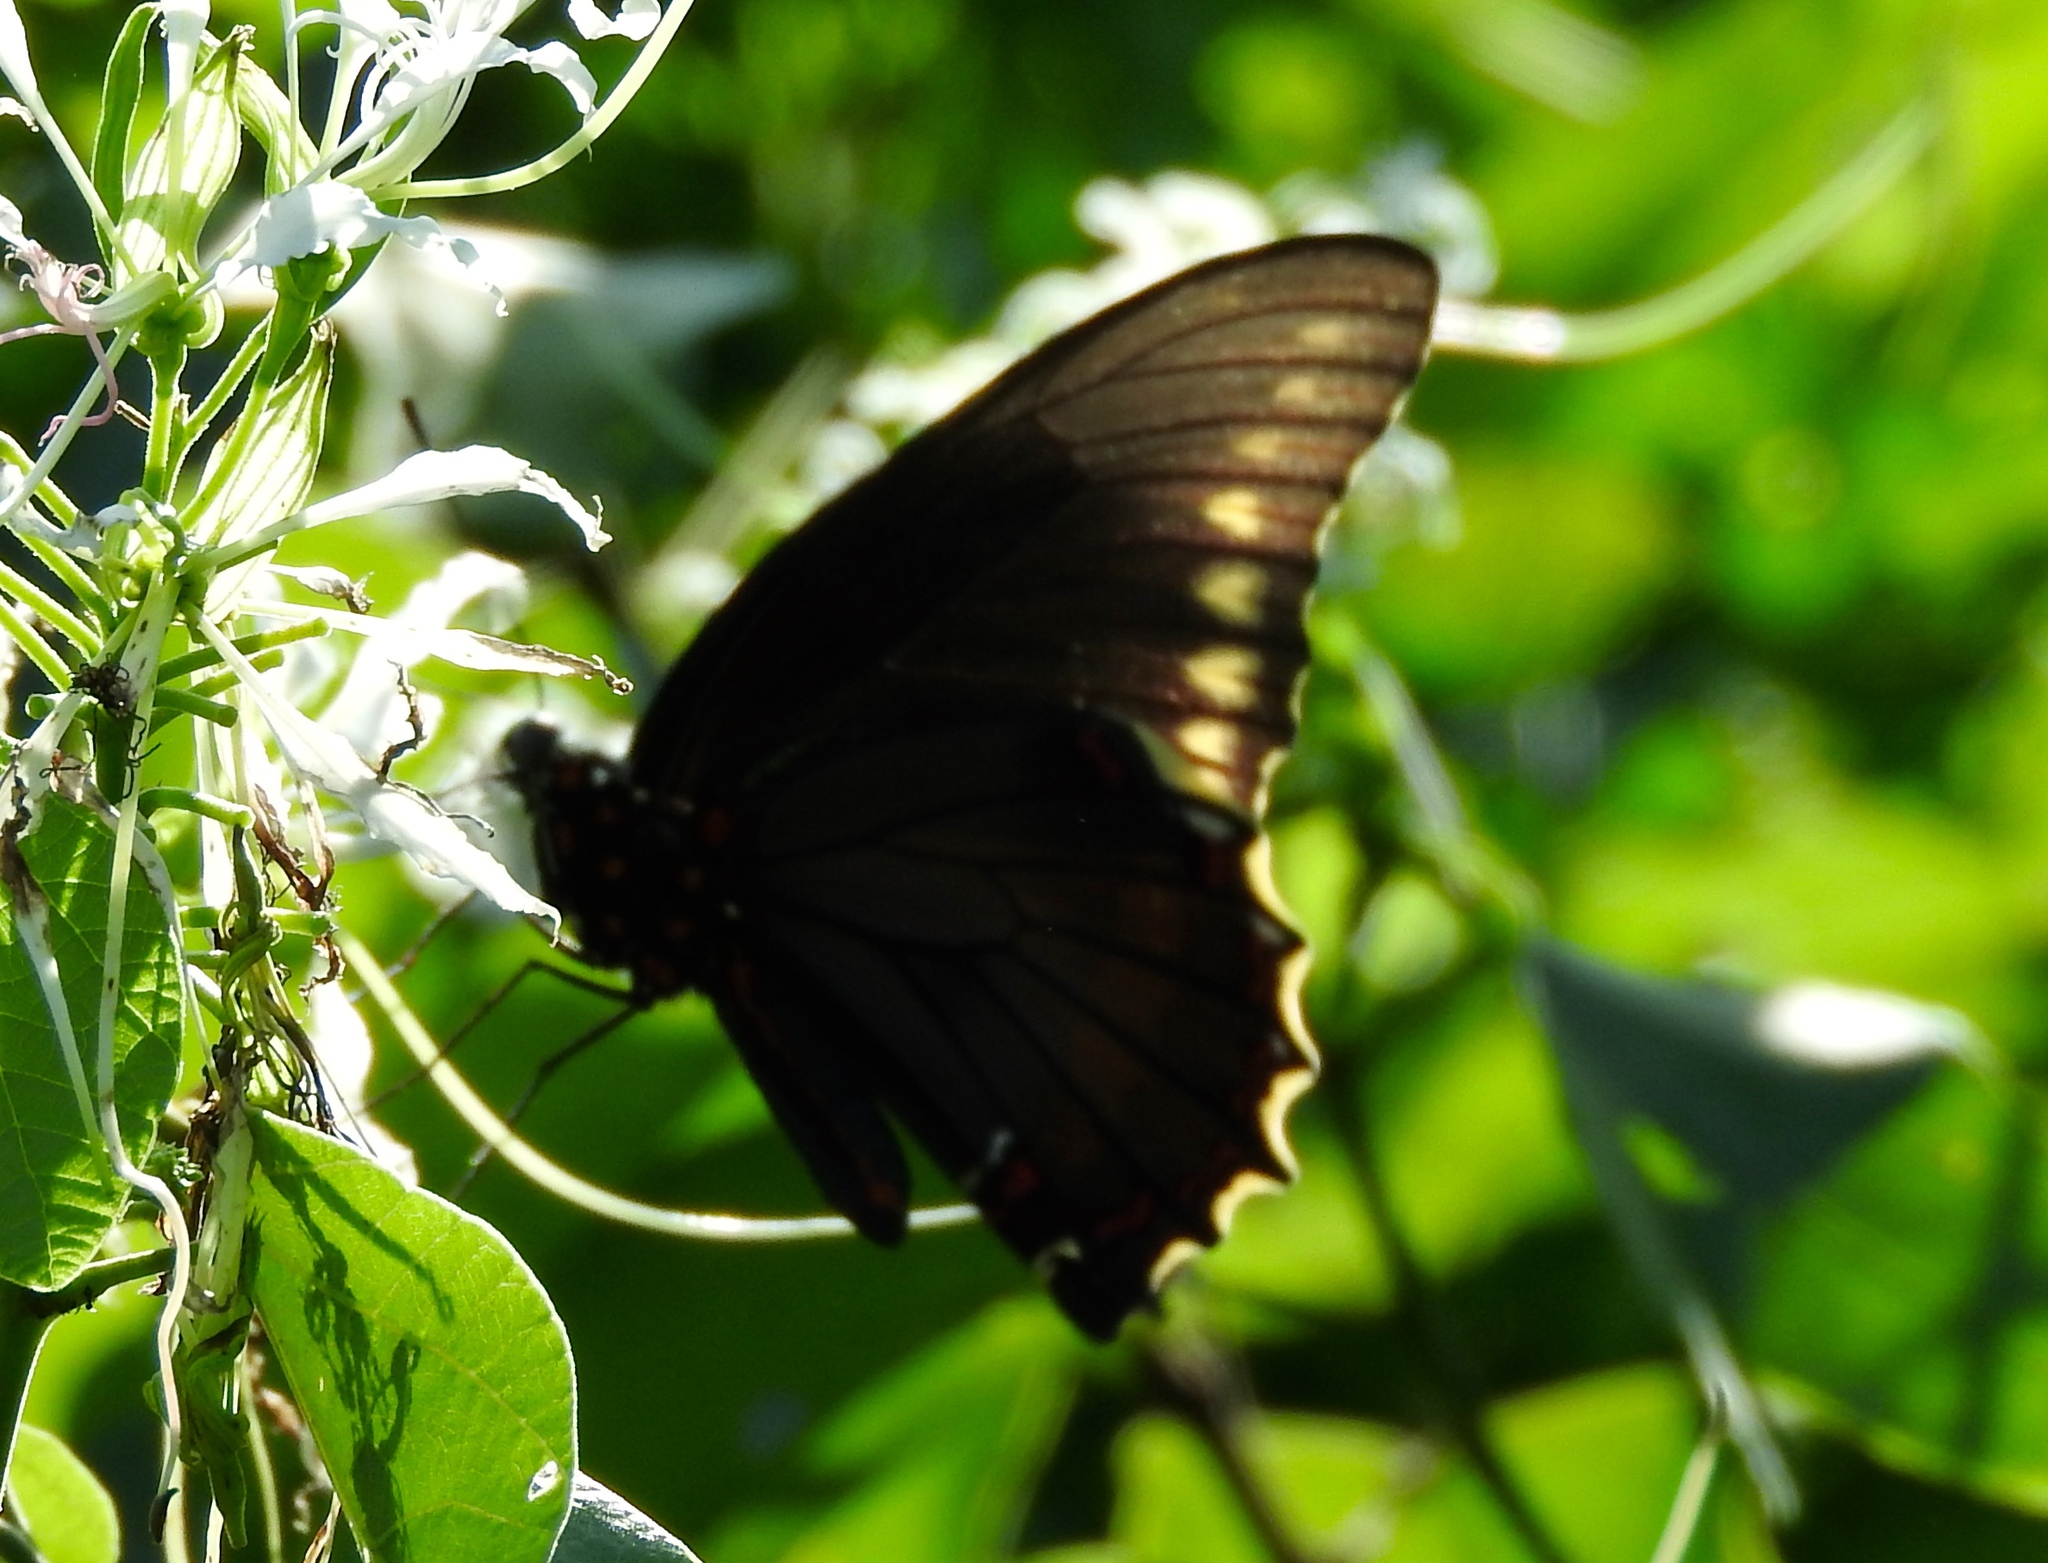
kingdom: Animalia
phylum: Arthropoda
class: Insecta
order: Lepidoptera
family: Papilionidae
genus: Battus
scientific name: Battus polydamas
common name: Polydamas swallowtail
